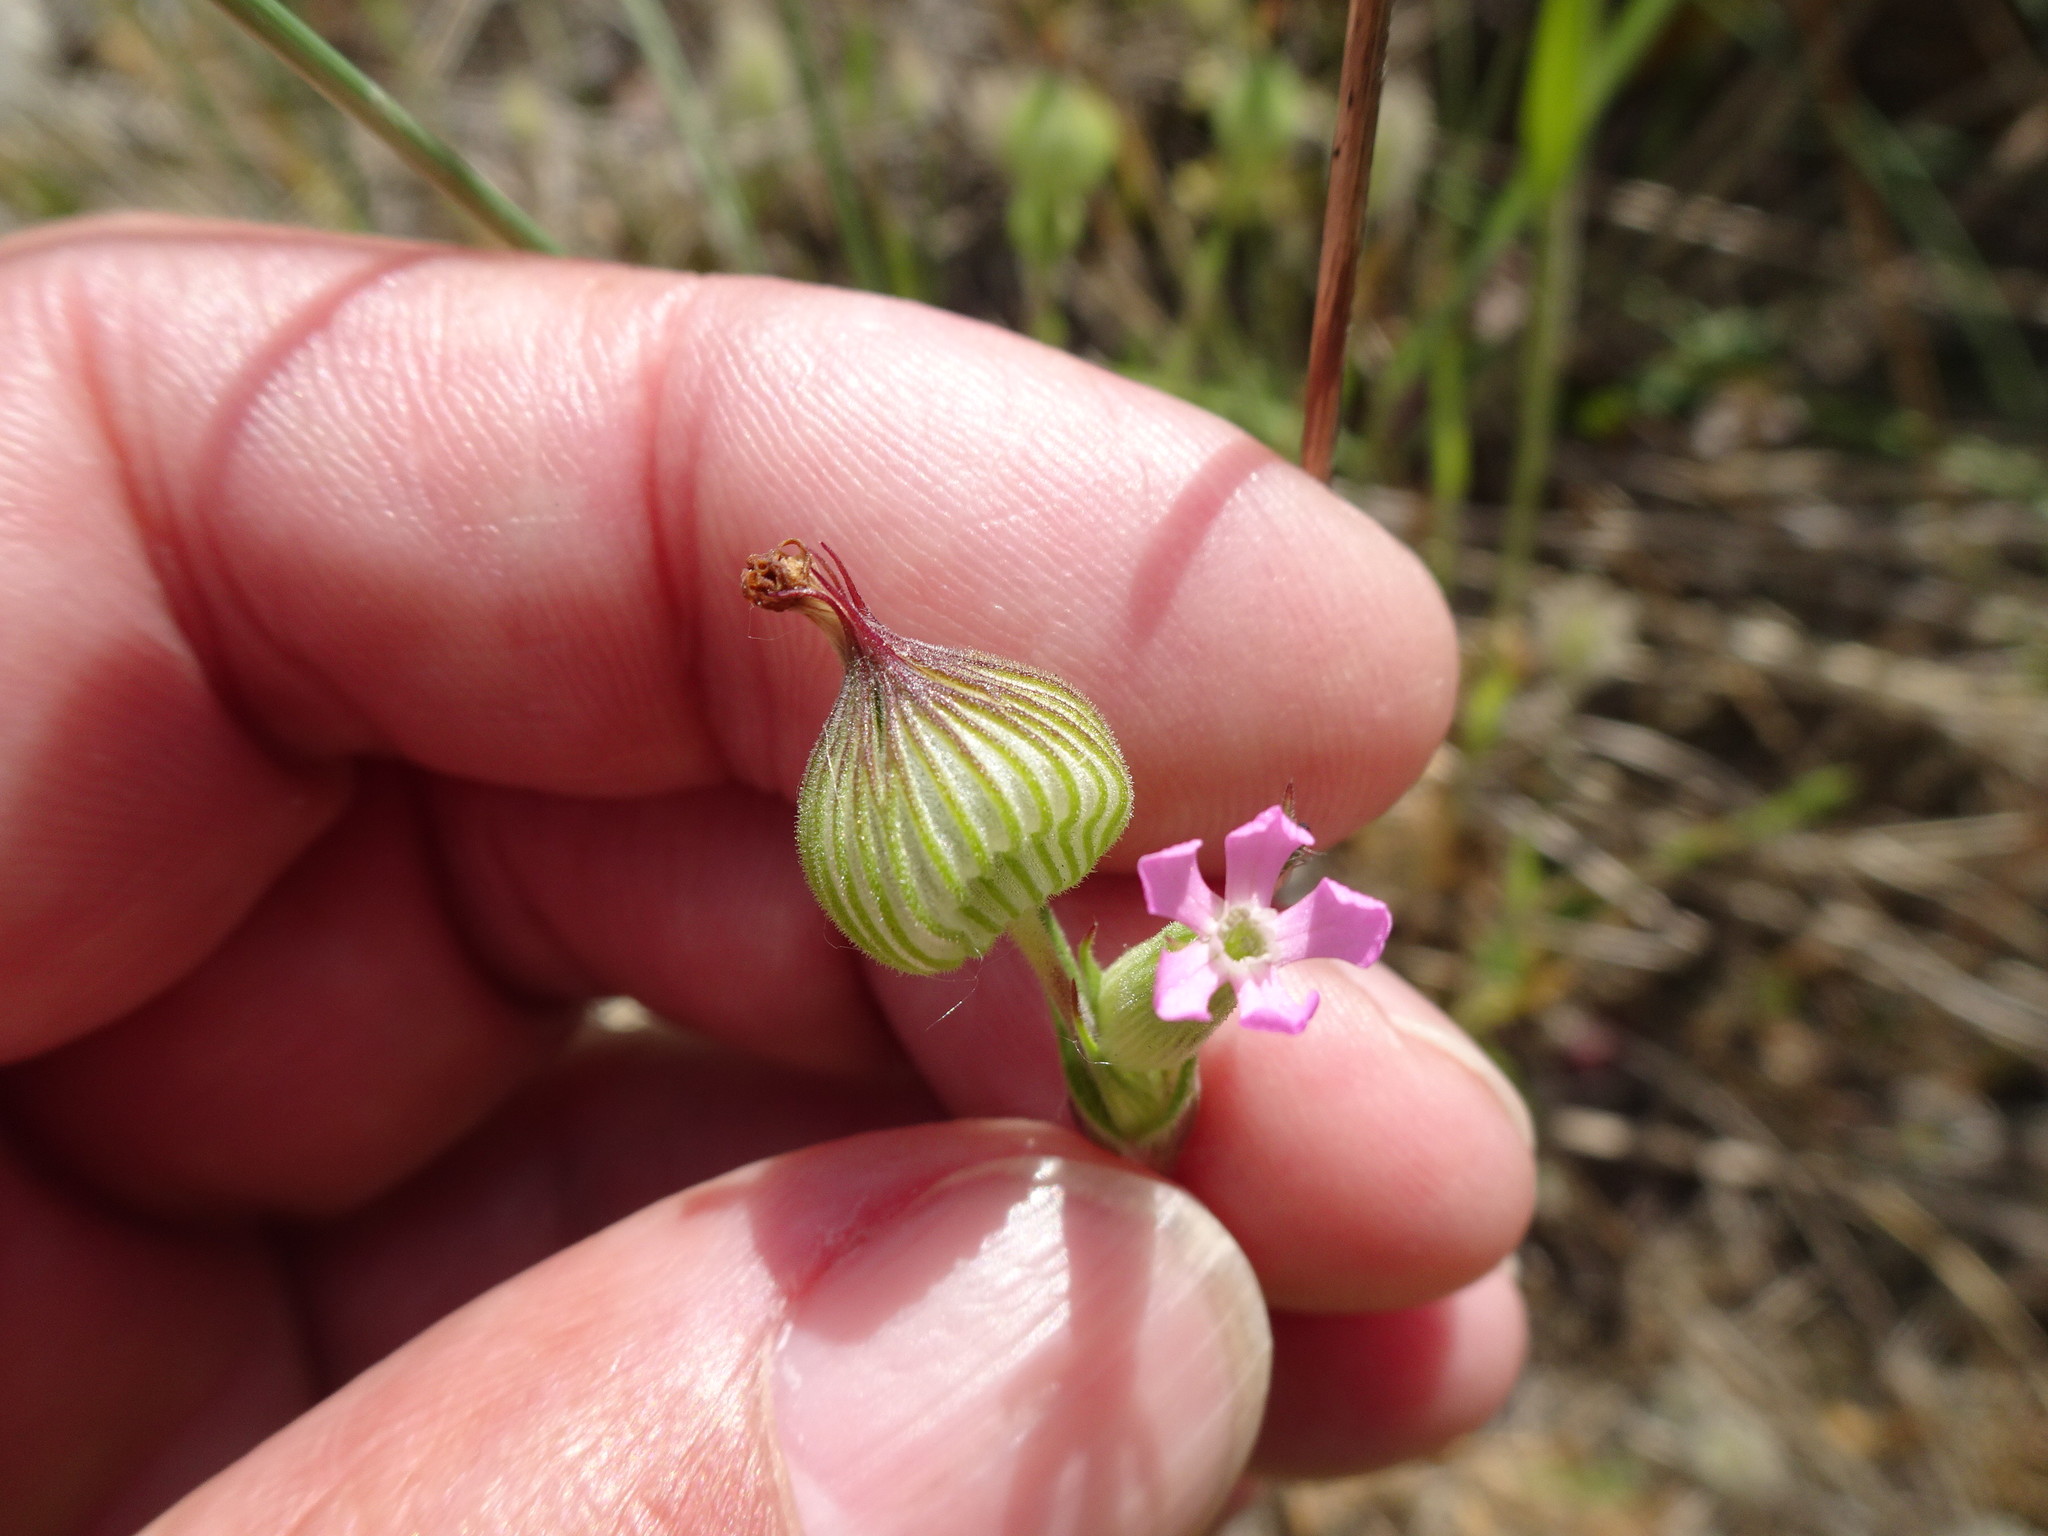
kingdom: Plantae
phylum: Tracheophyta
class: Magnoliopsida
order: Caryophyllales
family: Caryophyllaceae
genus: Silene
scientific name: Silene conica
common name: Sand catchfly
